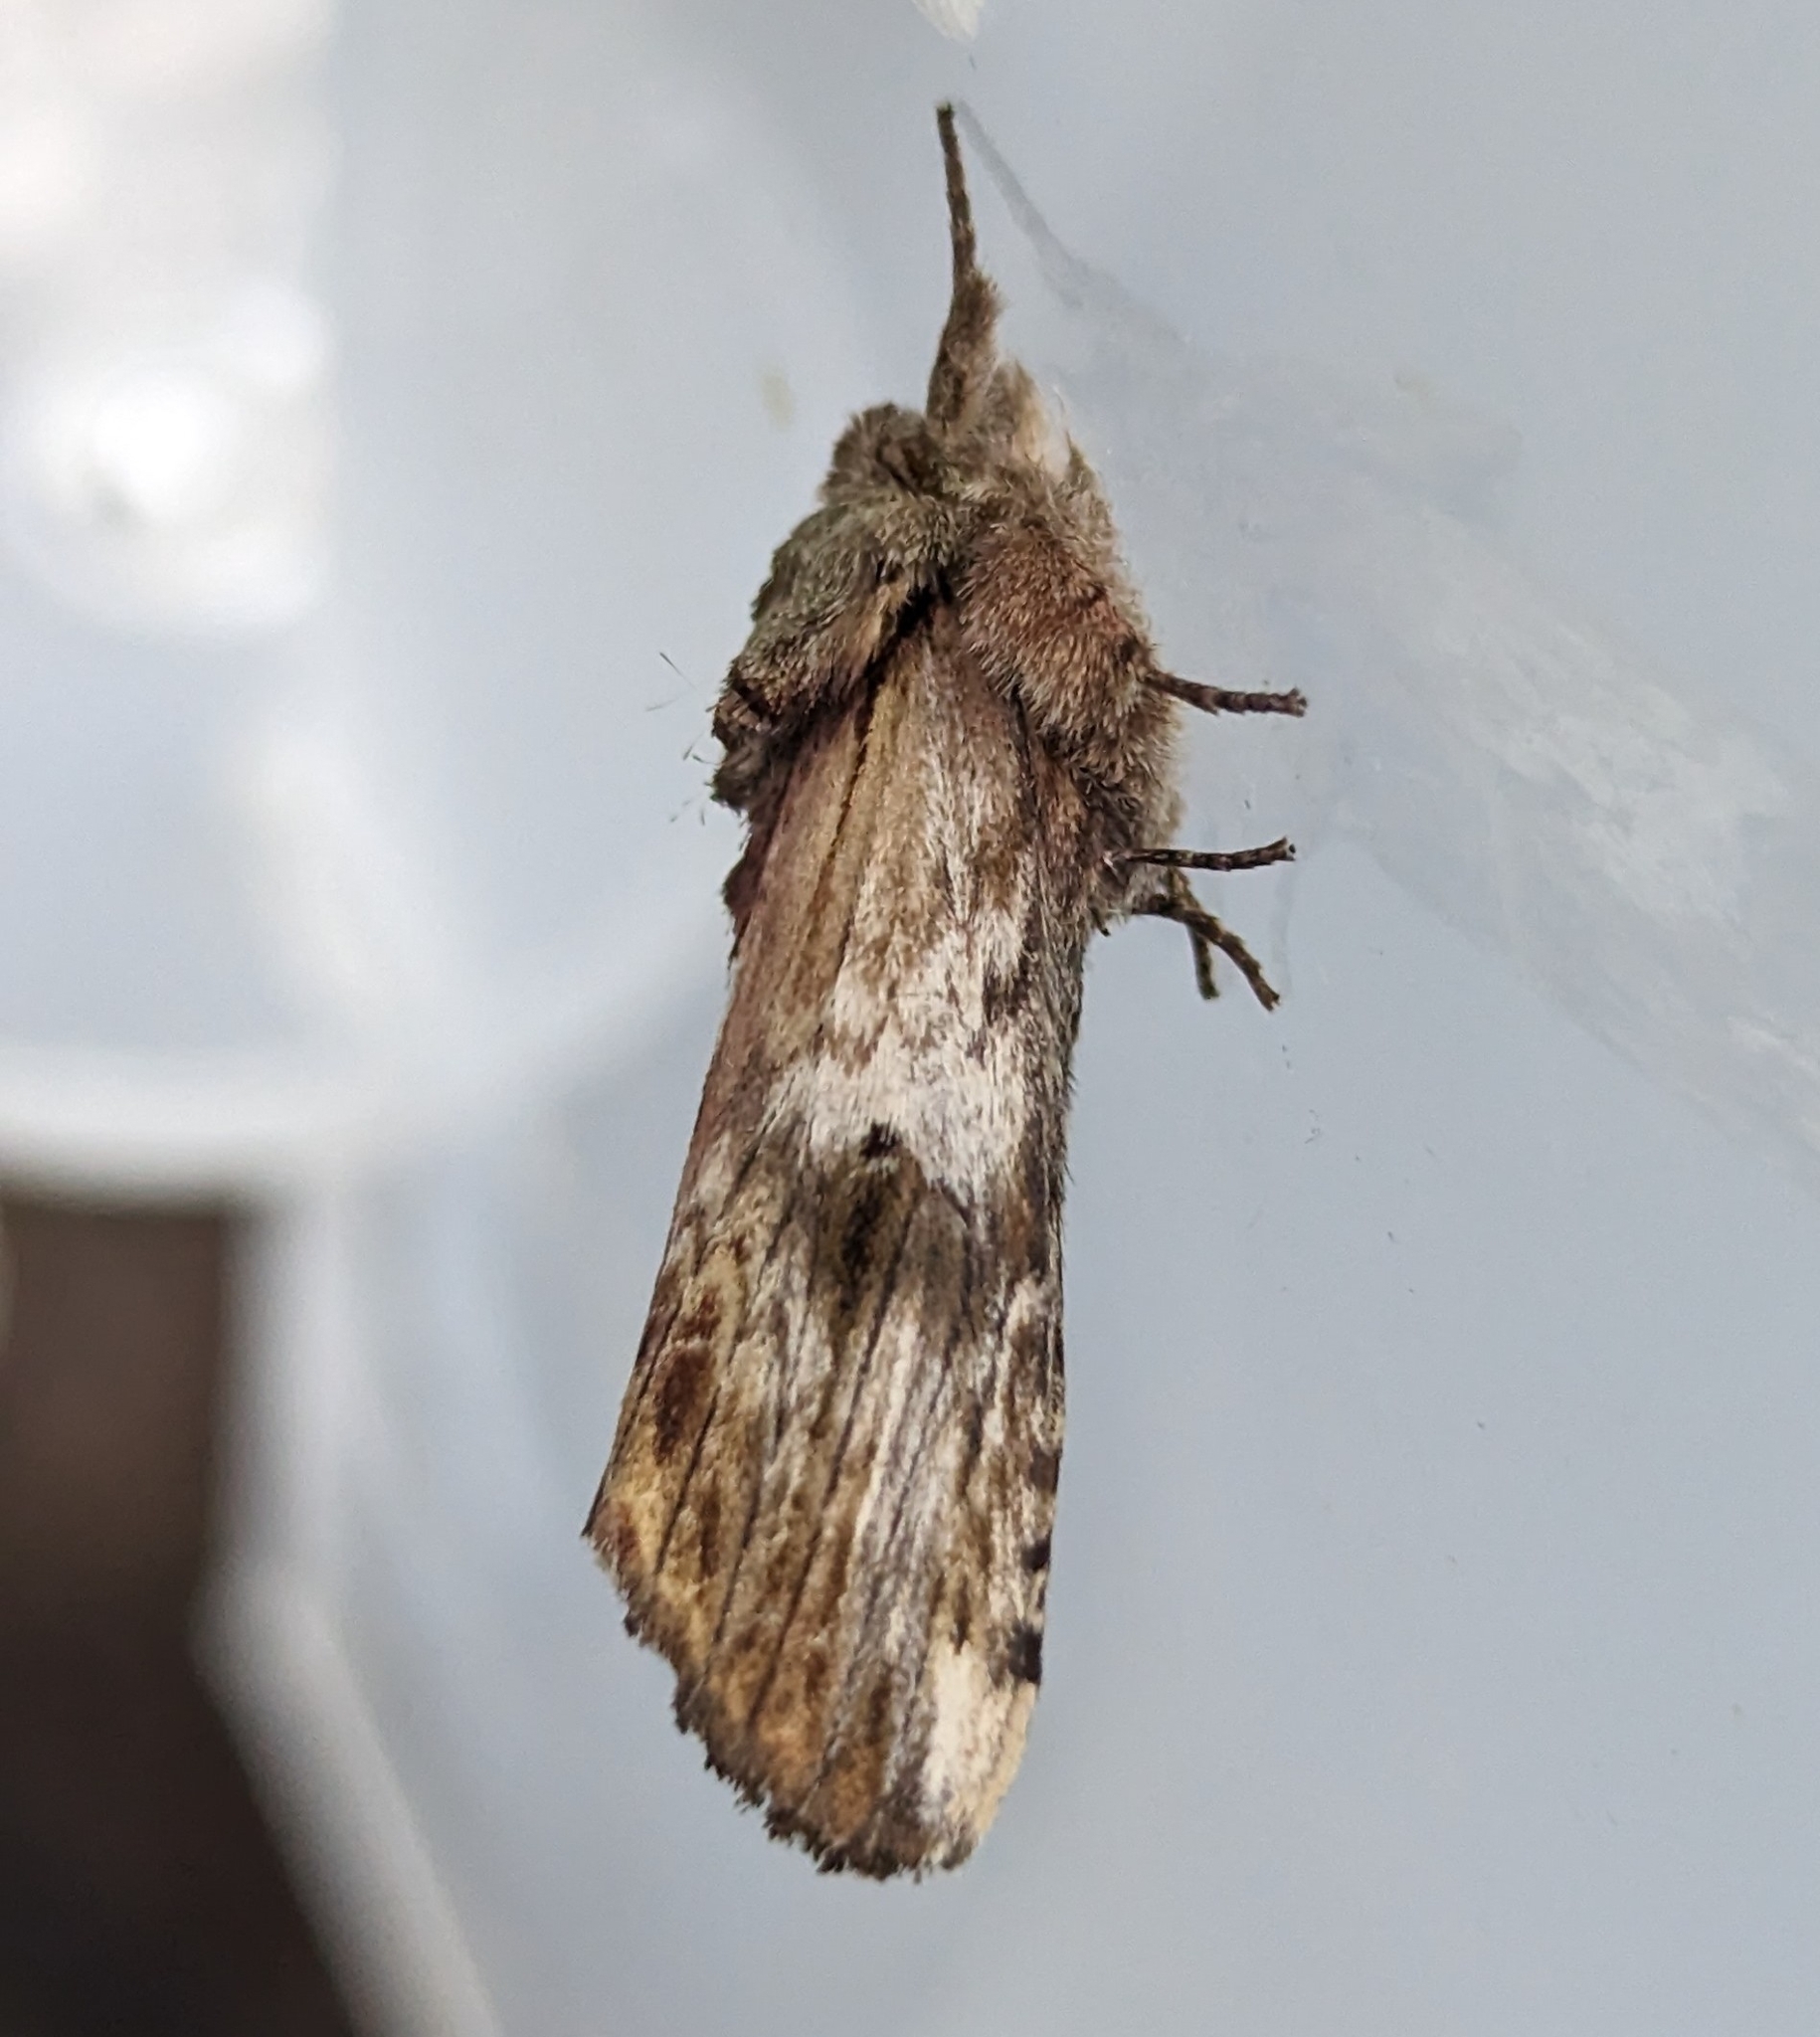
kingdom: Animalia
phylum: Arthropoda
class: Insecta
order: Lepidoptera
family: Notodontidae
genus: Schizura
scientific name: Schizura
